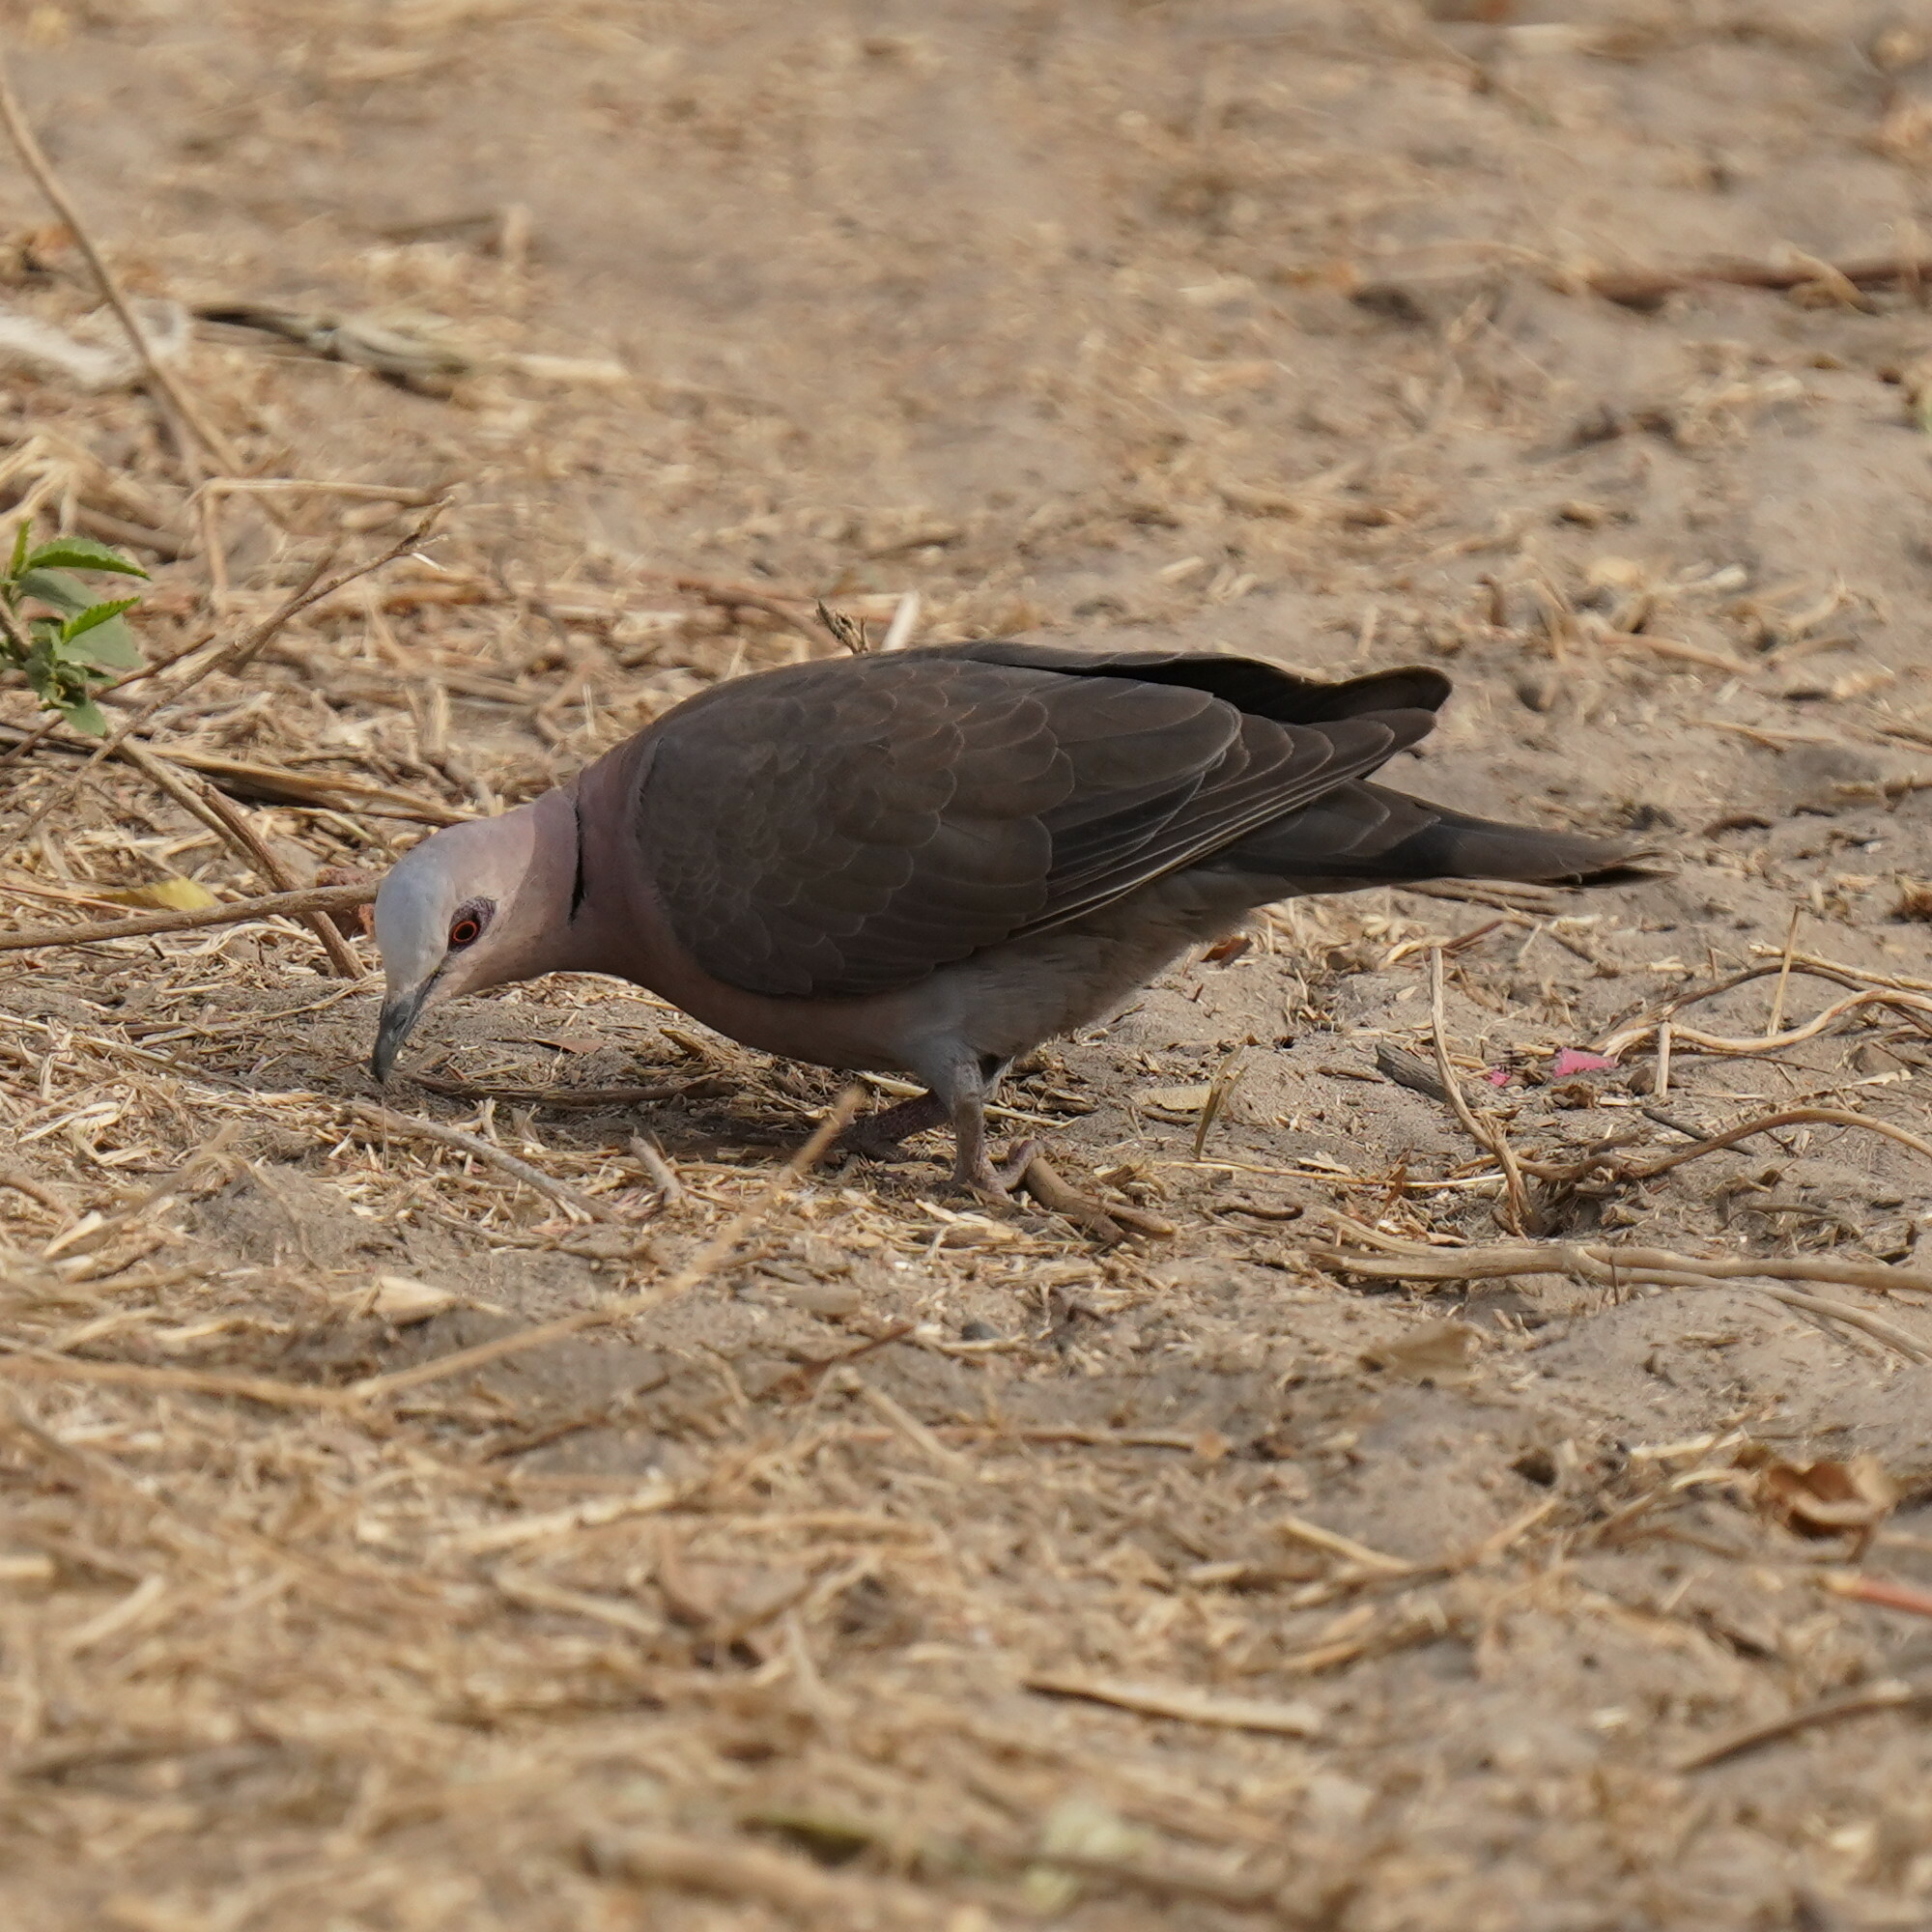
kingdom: Animalia
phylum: Chordata
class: Aves
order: Columbiformes
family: Columbidae
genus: Streptopelia
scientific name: Streptopelia semitorquata
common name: Red-eyed dove
